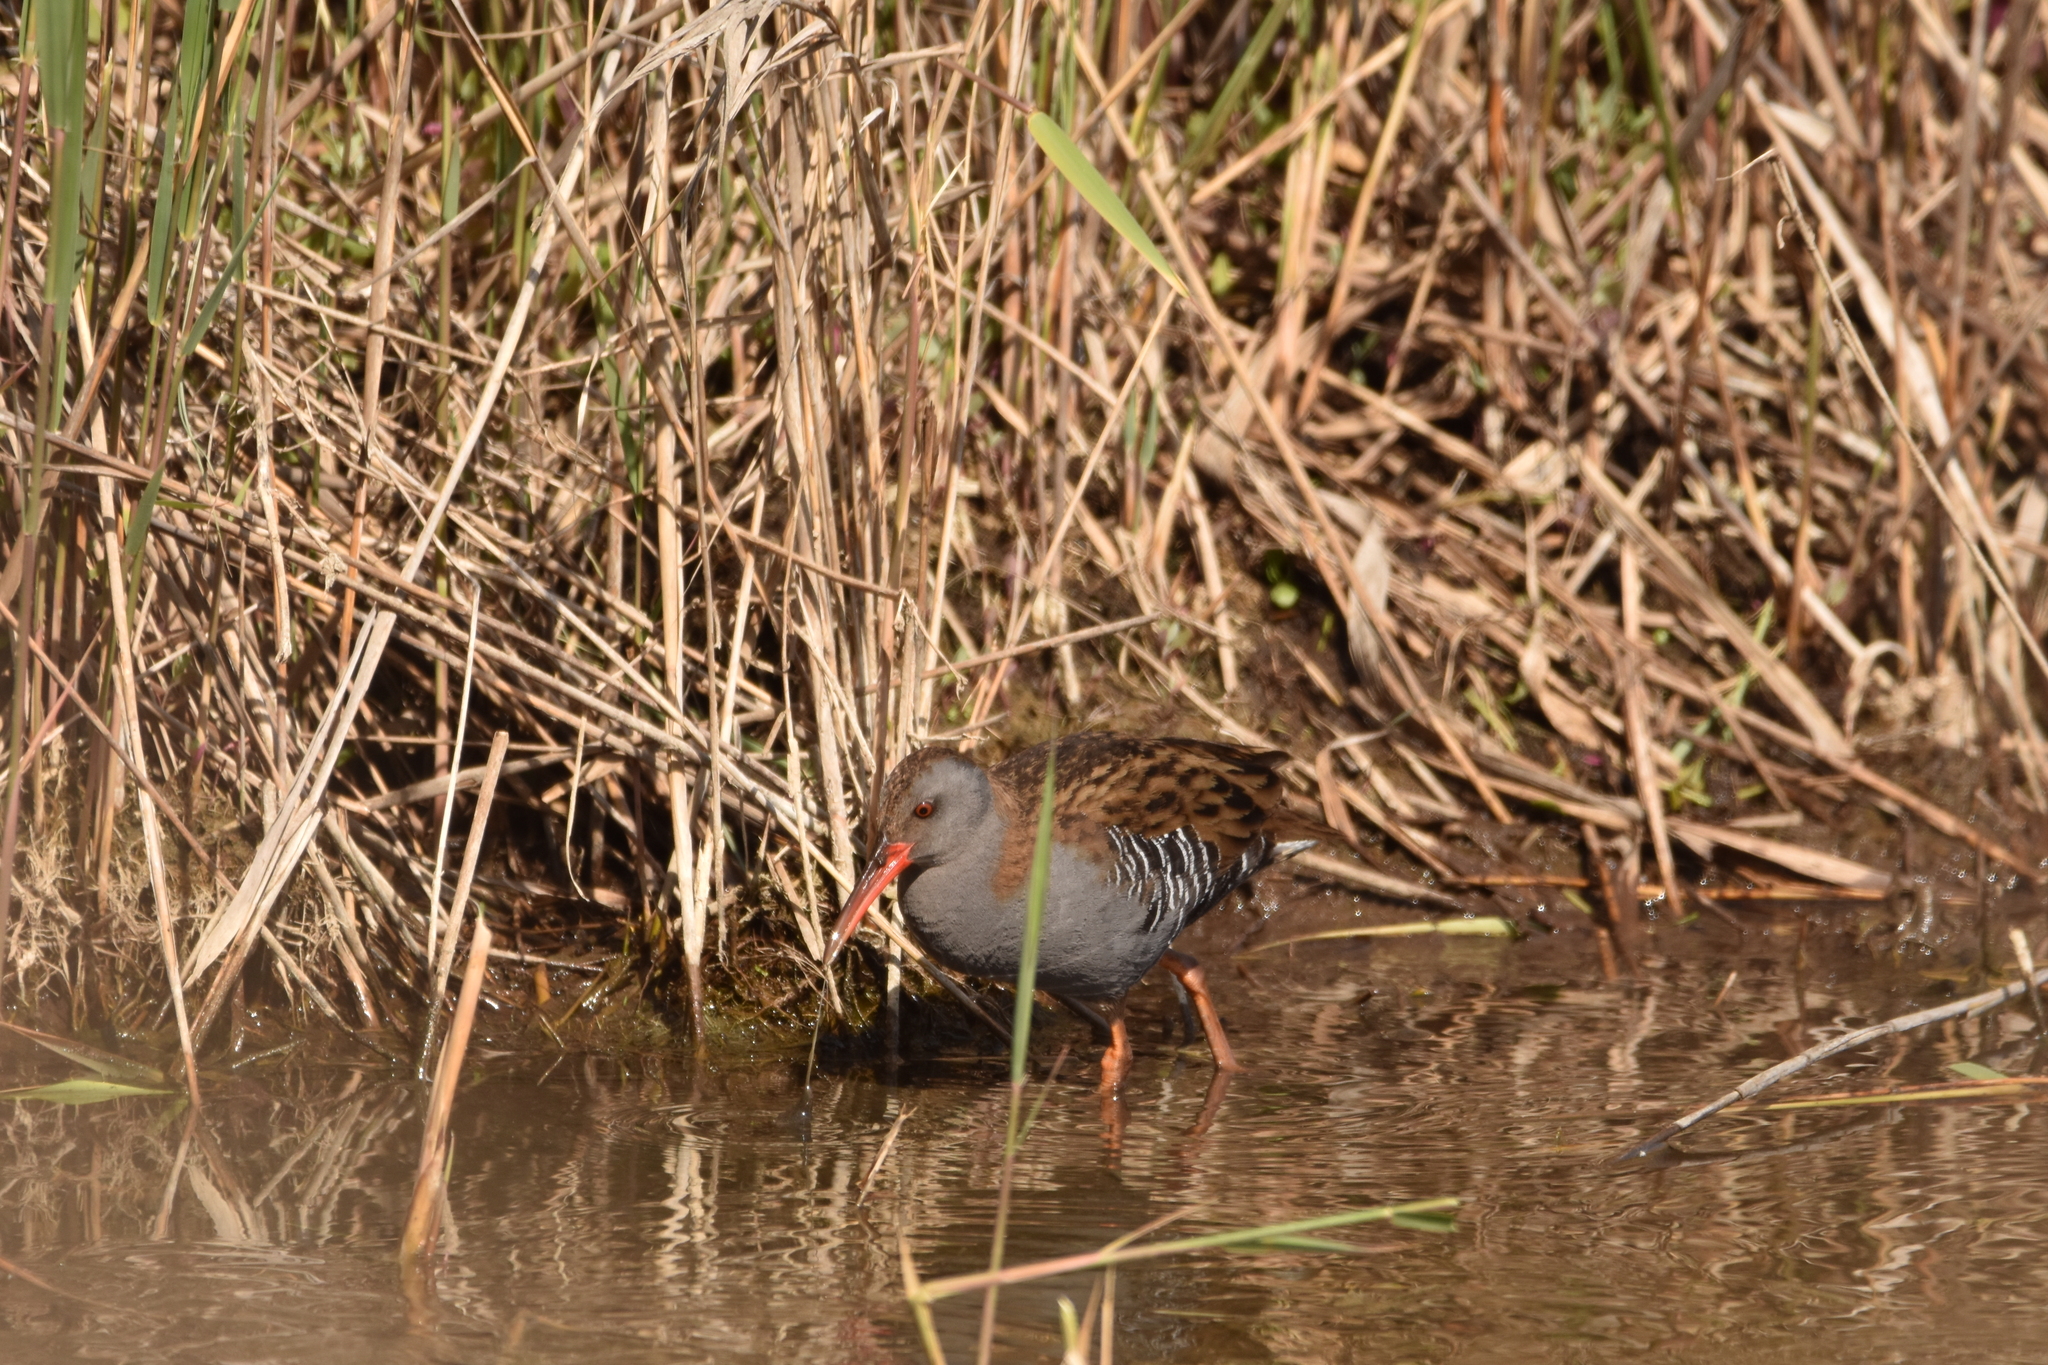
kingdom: Animalia
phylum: Chordata
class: Aves
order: Gruiformes
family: Rallidae
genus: Rallus
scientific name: Rallus aquaticus
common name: Water rail
